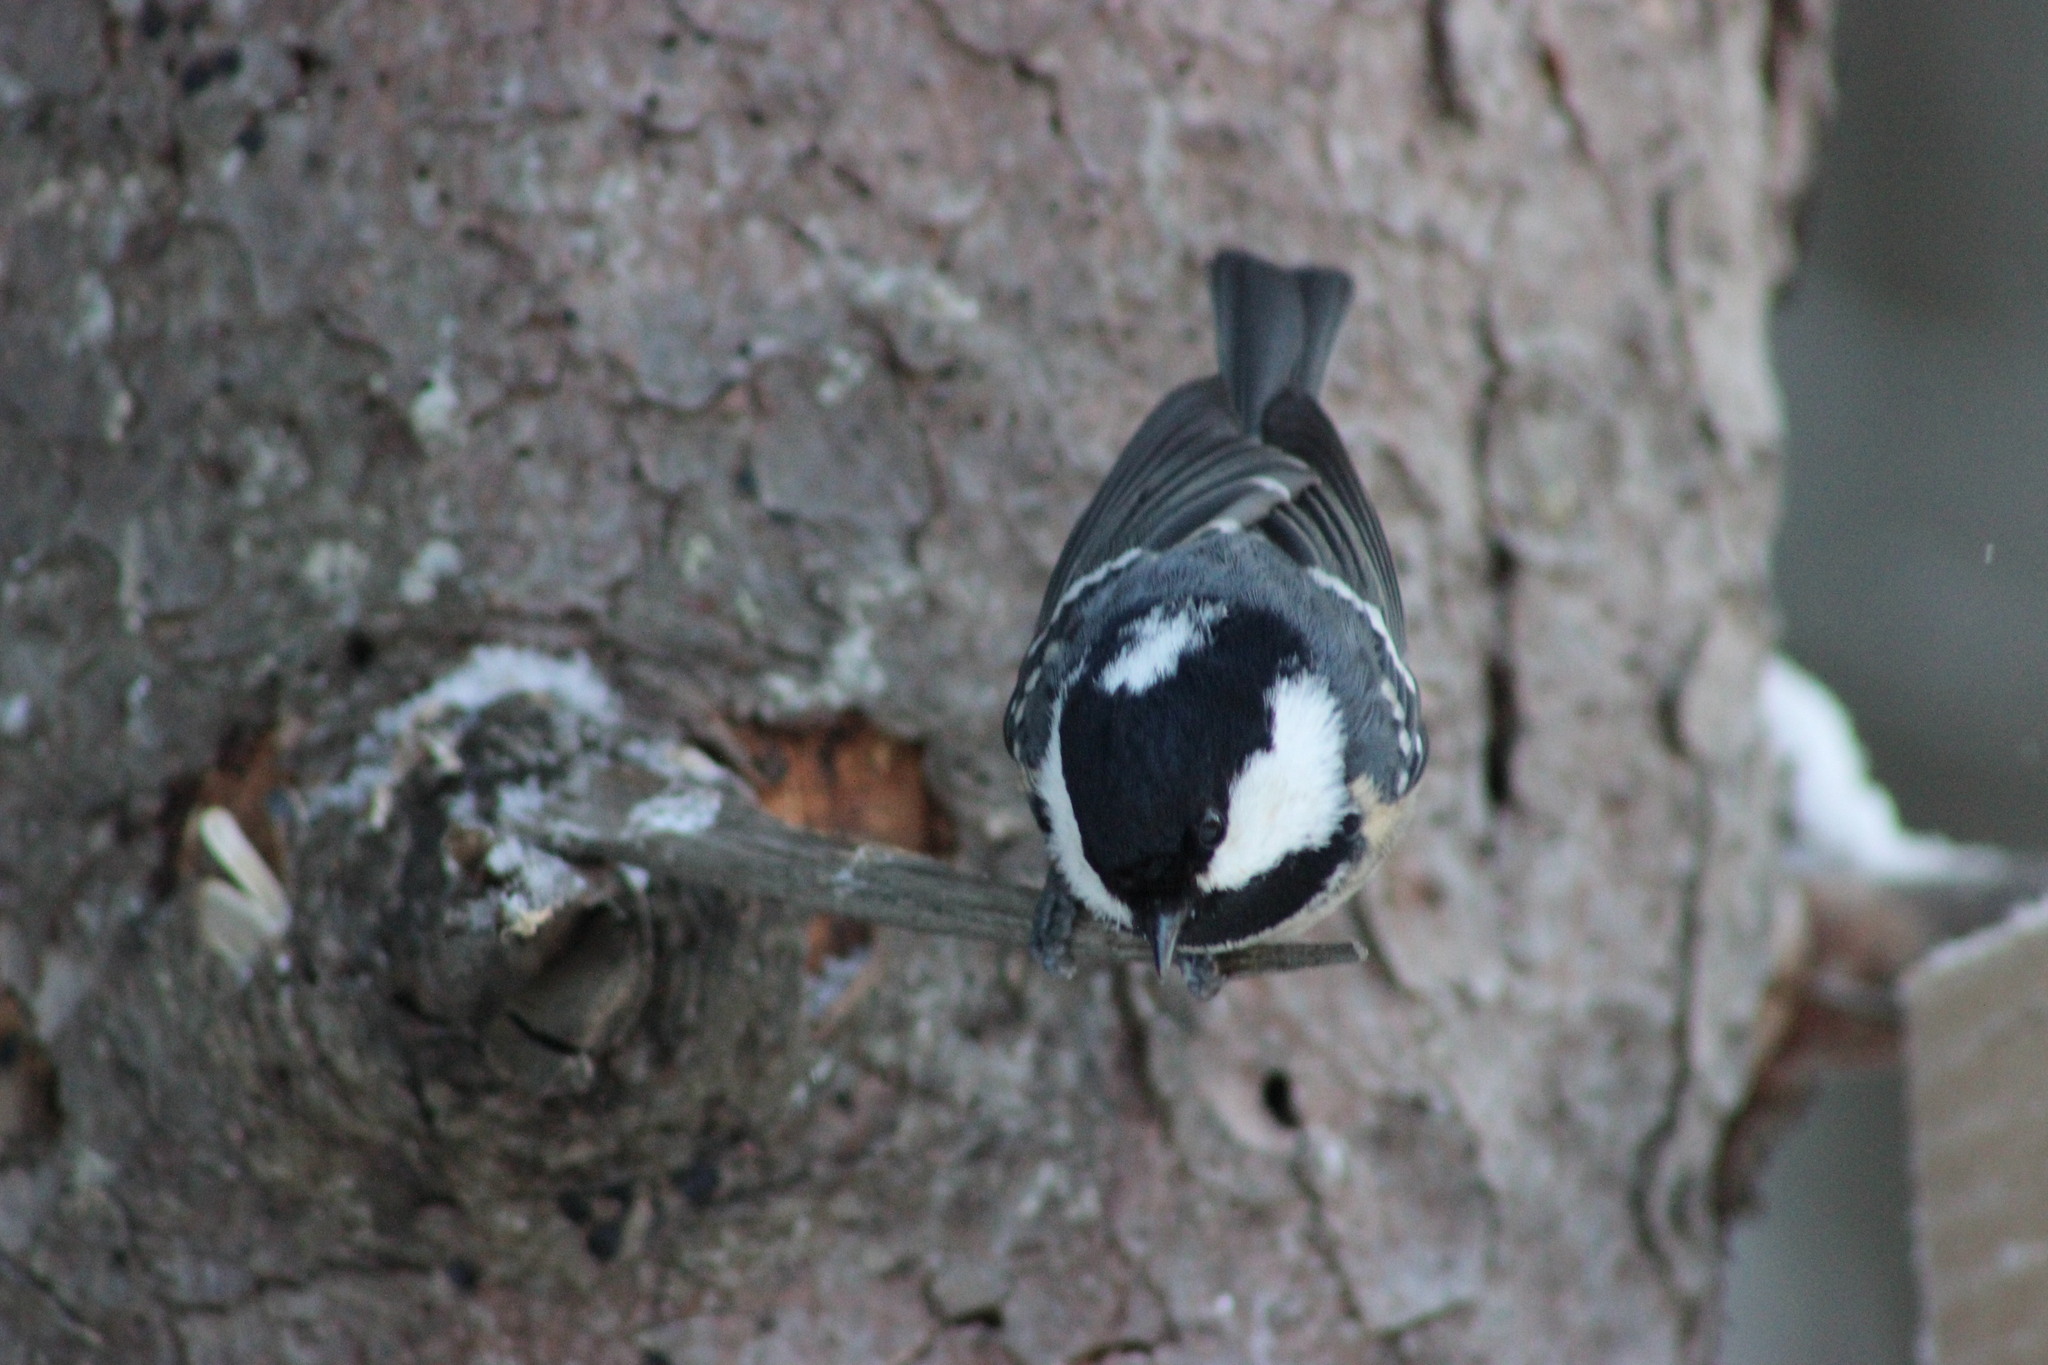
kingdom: Animalia
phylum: Chordata
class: Aves
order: Passeriformes
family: Paridae
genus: Periparus
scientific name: Periparus ater
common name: Coal tit
